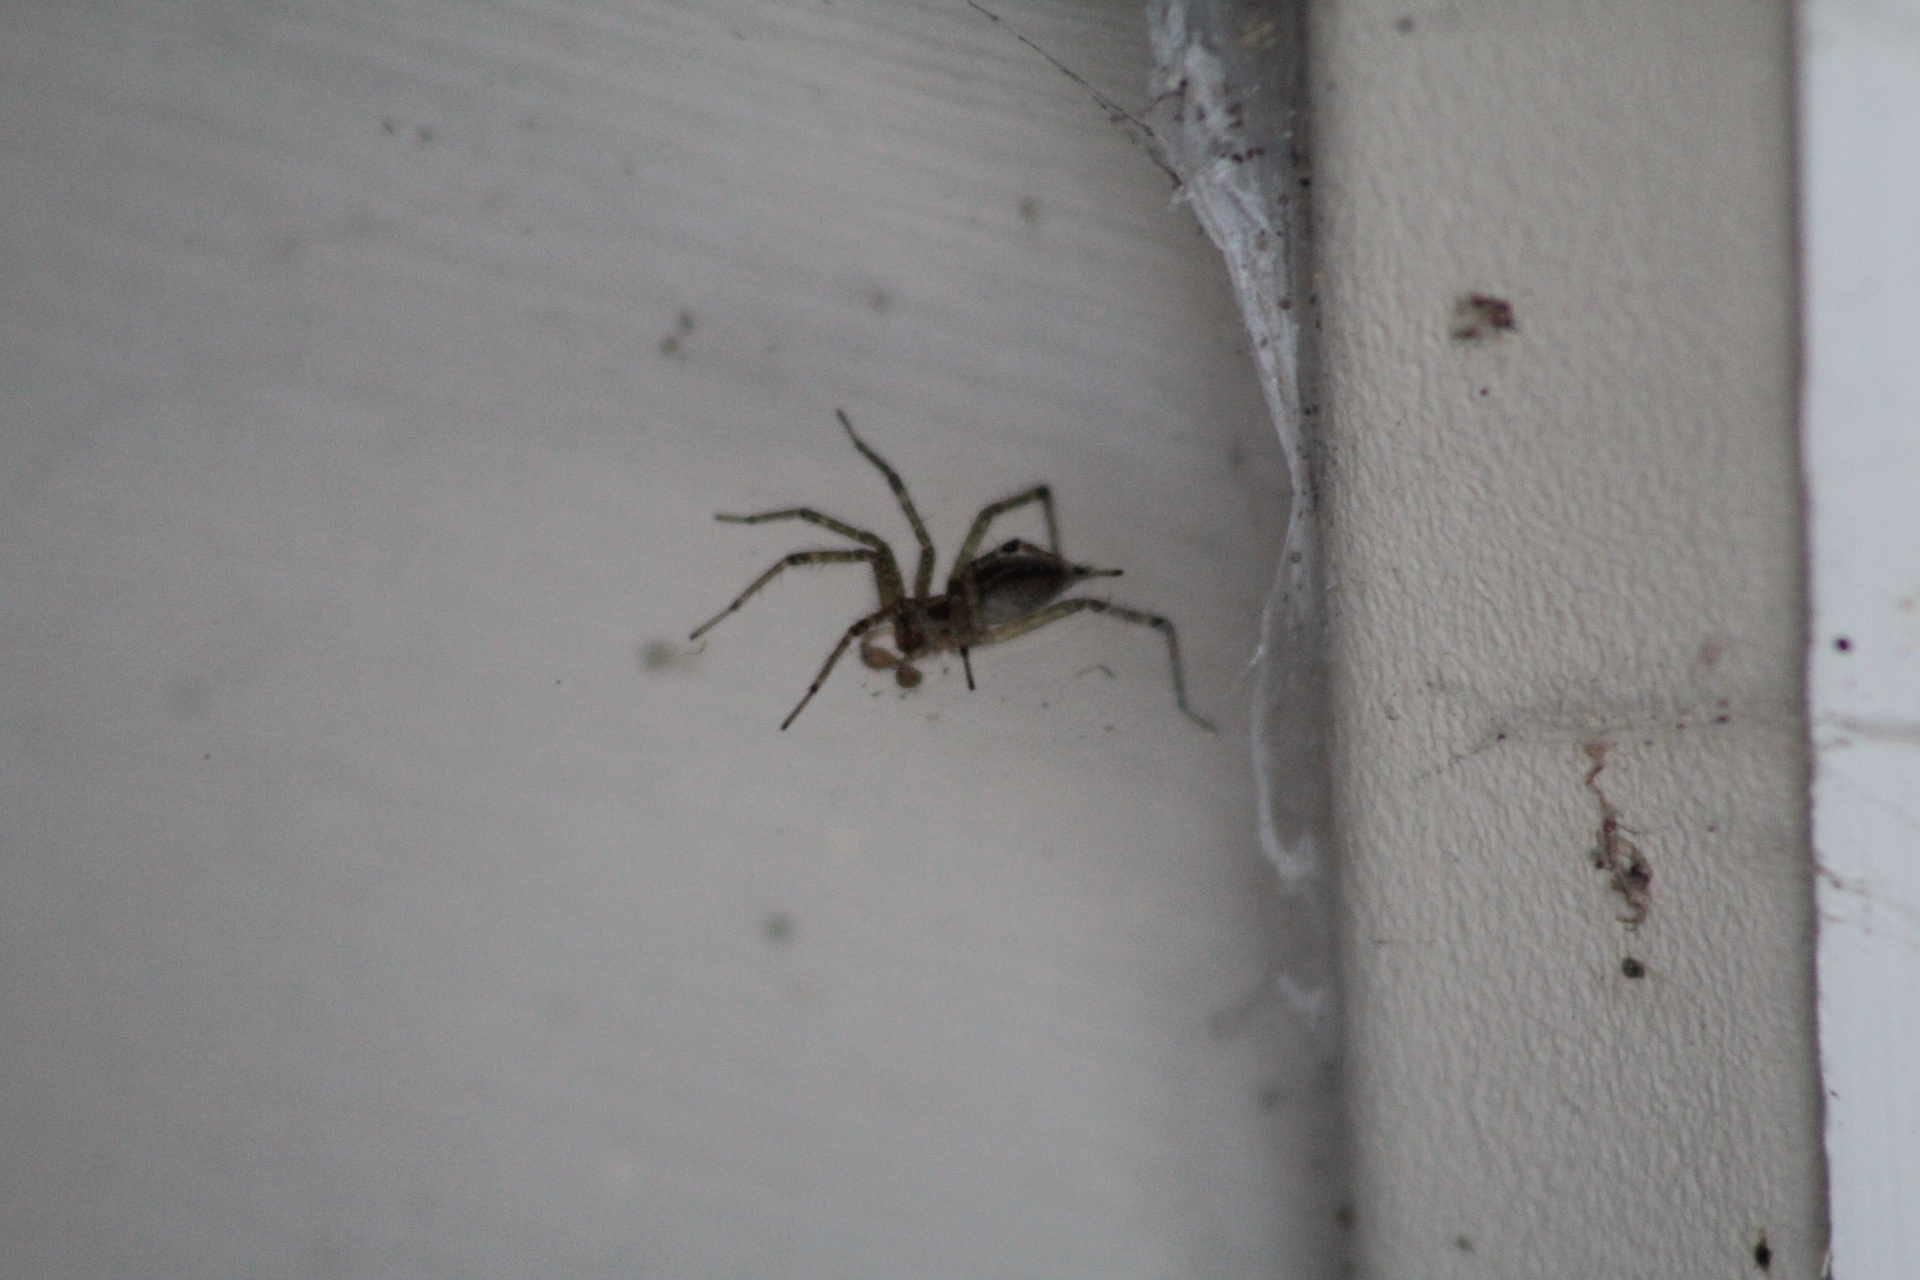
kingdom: Animalia
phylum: Arthropoda
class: Arachnida
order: Araneae
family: Agelenidae
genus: Agelenopsis
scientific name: Agelenopsis
